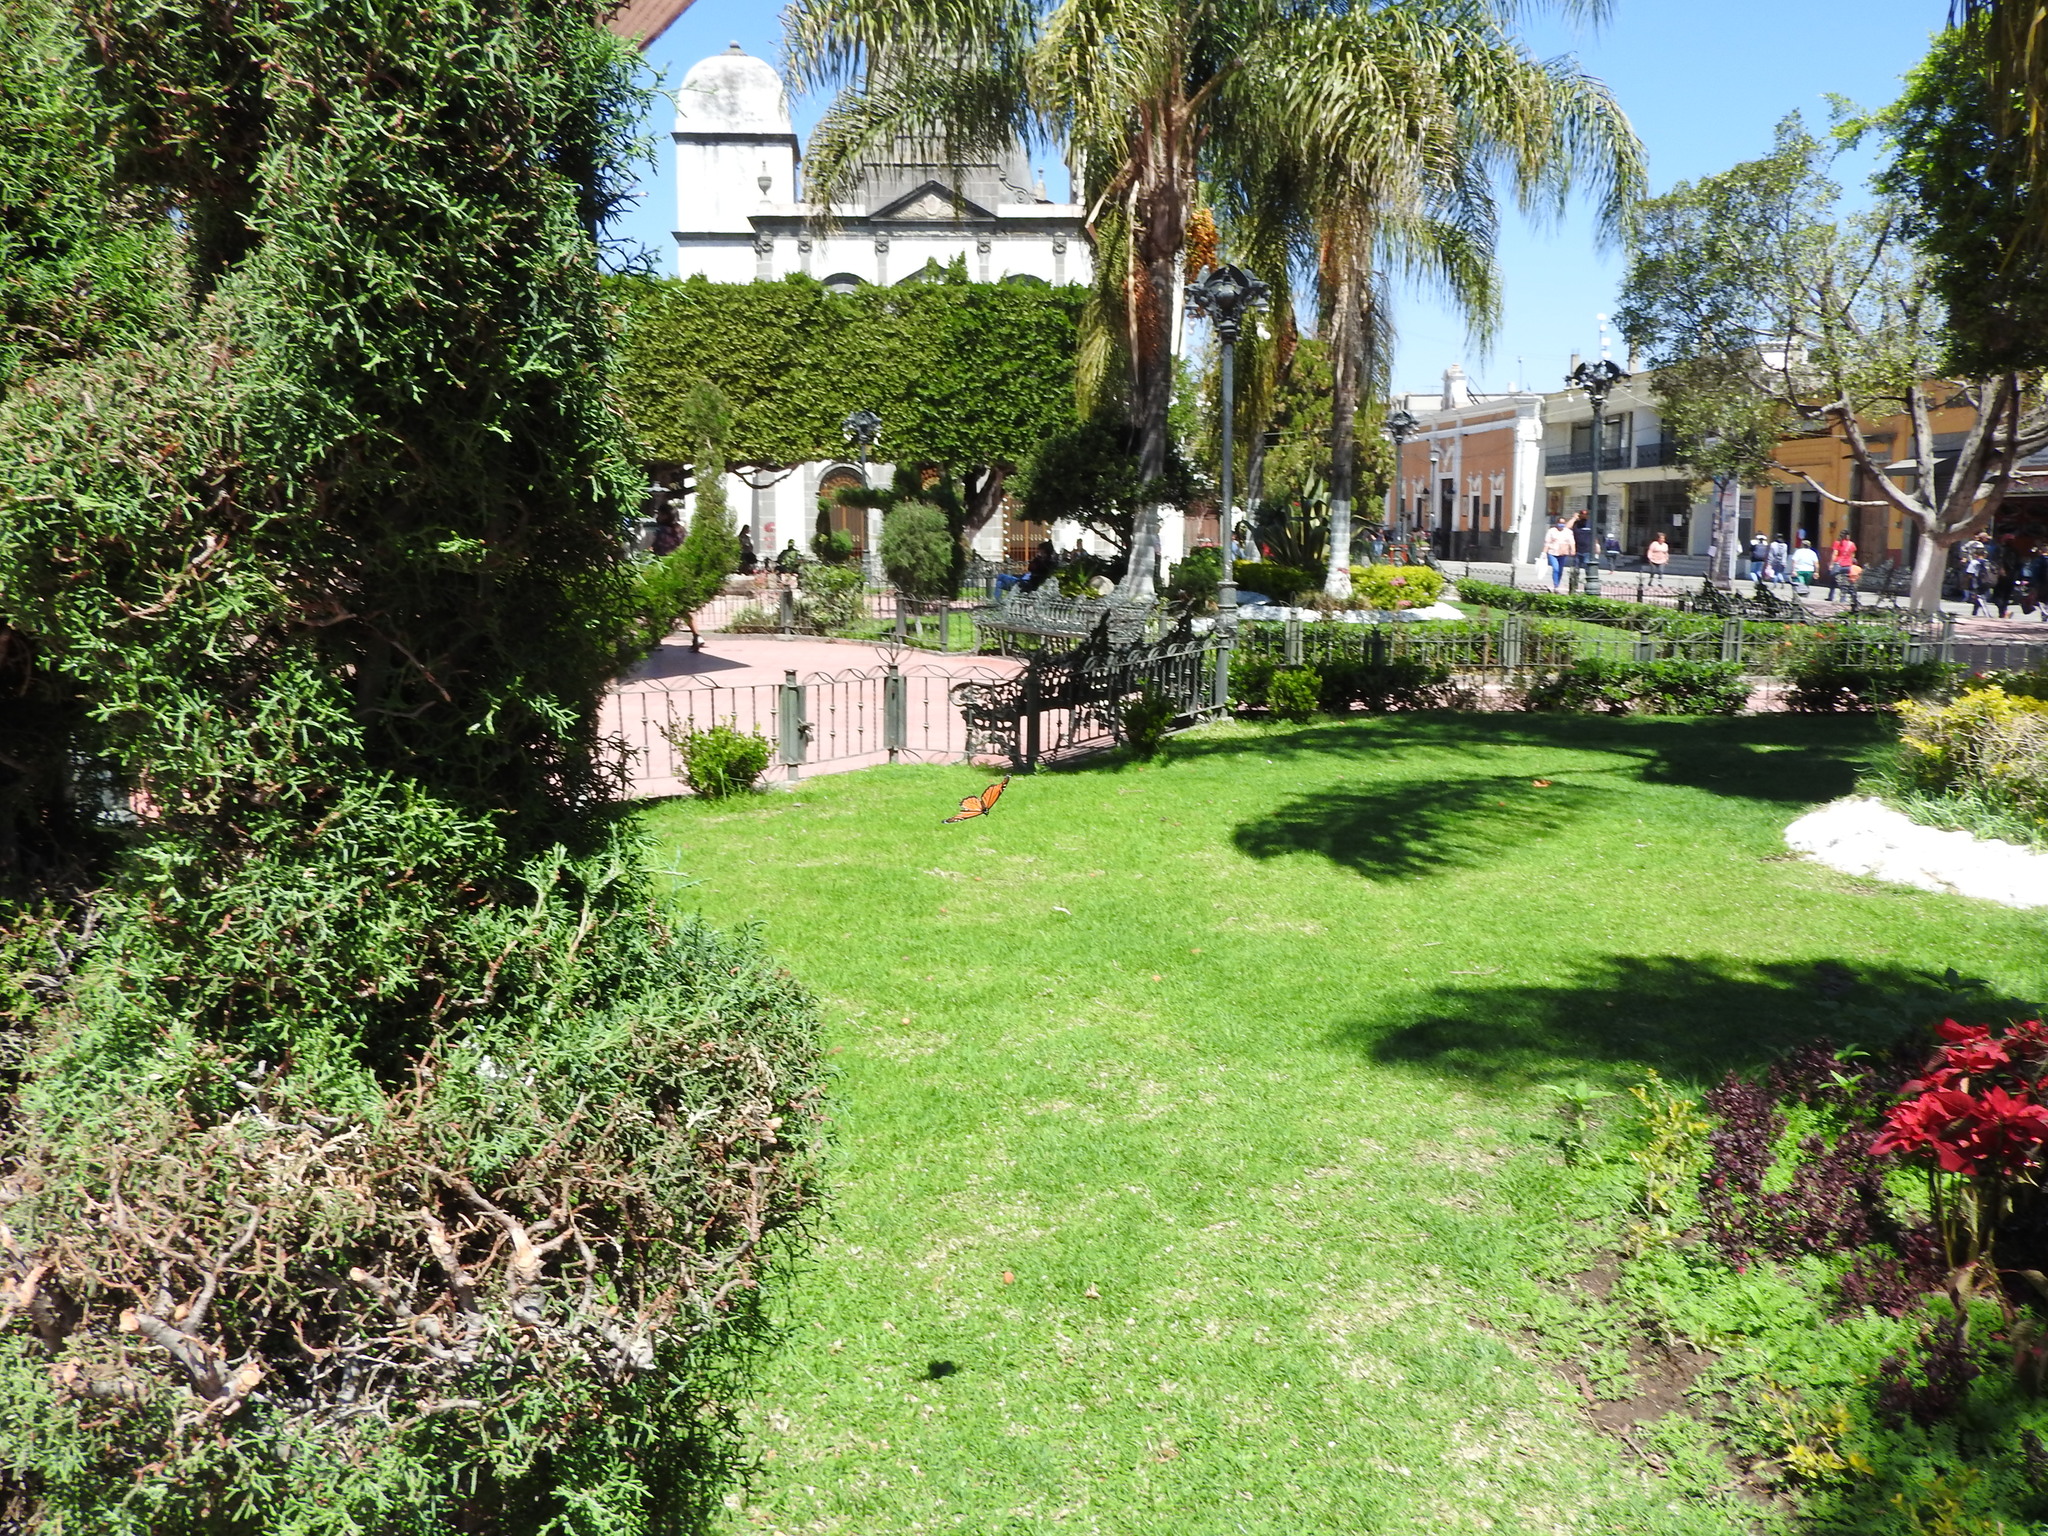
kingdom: Animalia
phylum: Arthropoda
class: Insecta
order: Lepidoptera
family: Nymphalidae
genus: Danaus
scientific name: Danaus plexippus
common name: Monarch
